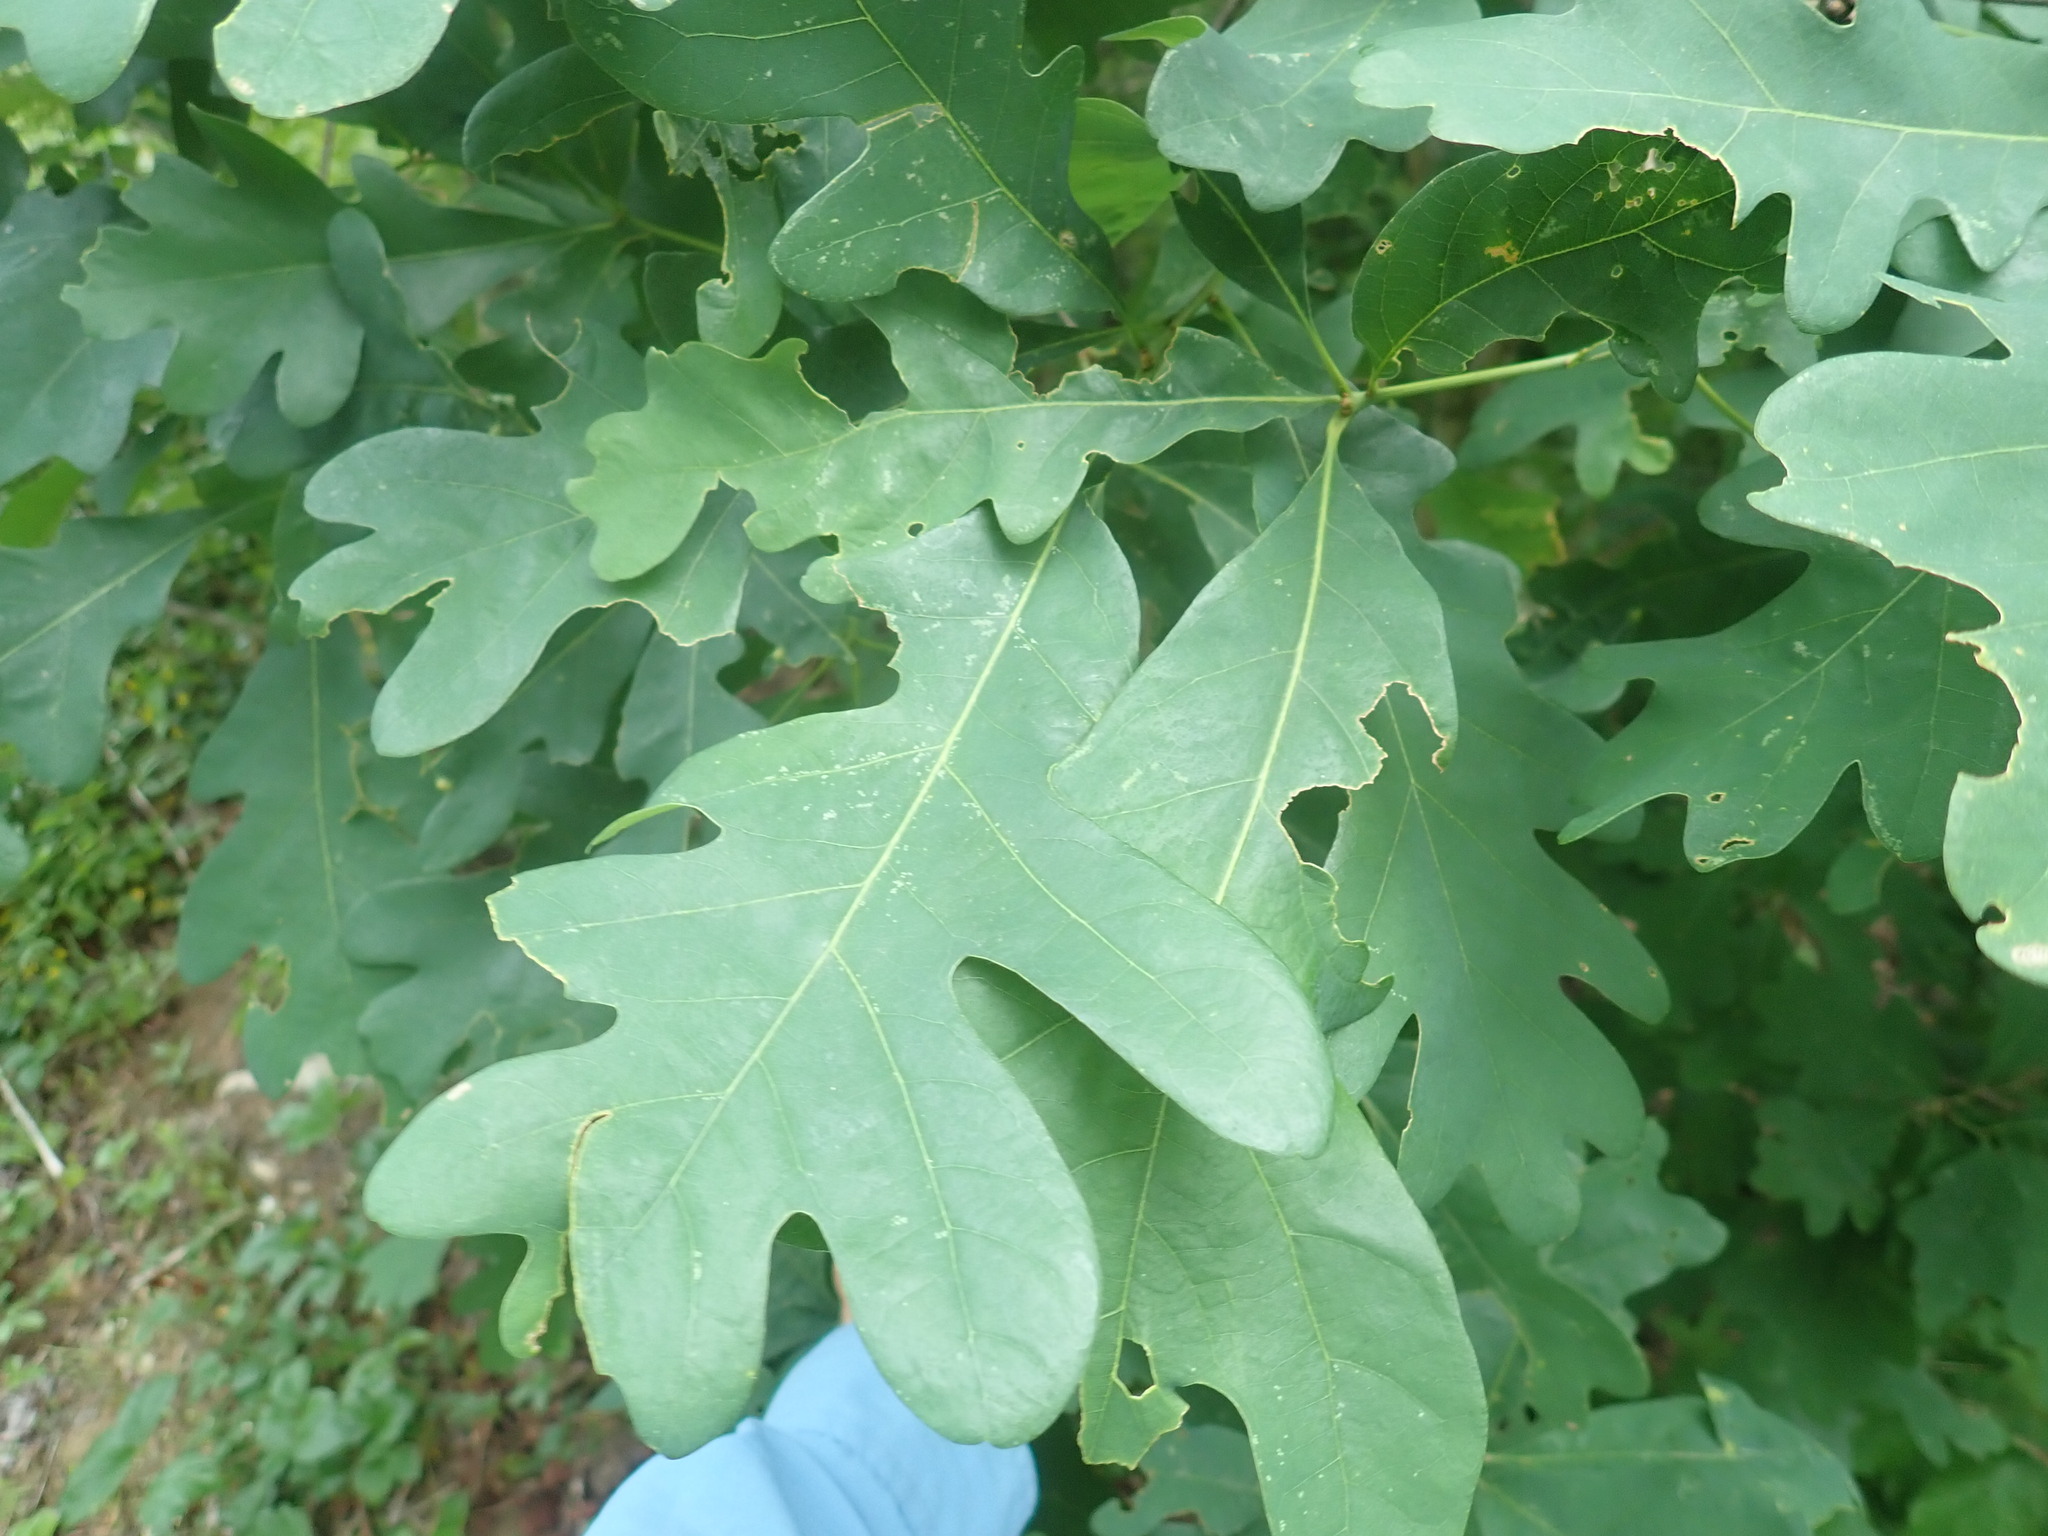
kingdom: Plantae
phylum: Tracheophyta
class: Magnoliopsida
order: Fagales
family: Fagaceae
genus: Quercus
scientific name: Quercus alba
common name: White oak
